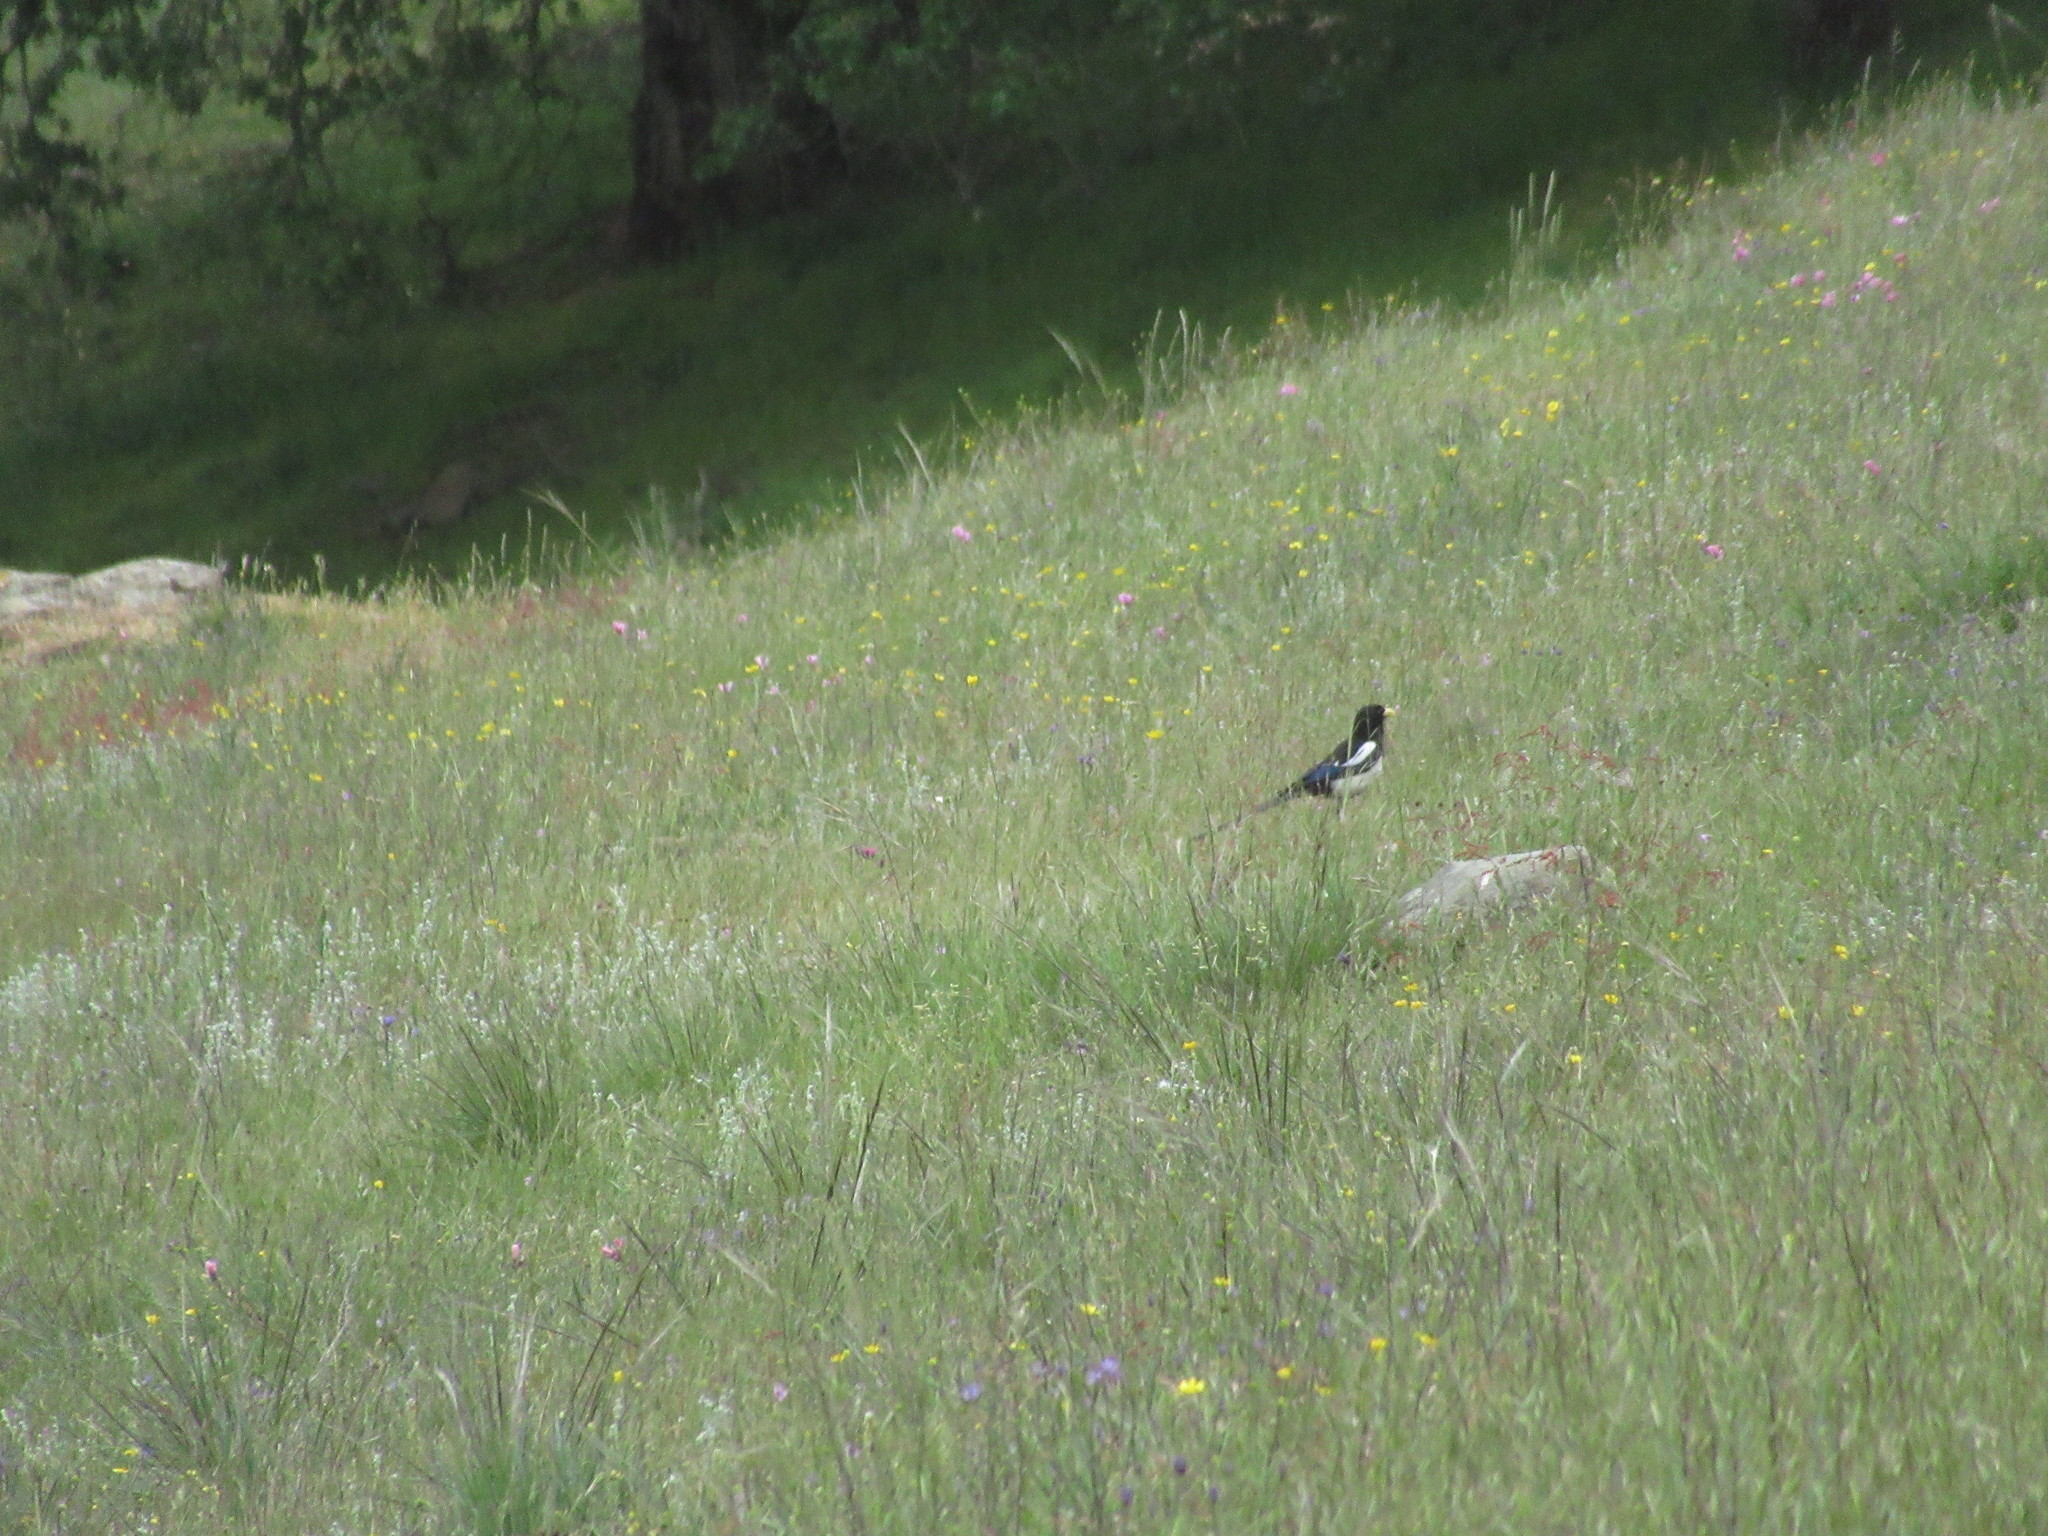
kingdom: Animalia
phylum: Chordata
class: Aves
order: Passeriformes
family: Corvidae
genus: Pica
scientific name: Pica nuttalli
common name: Yellow-billed magpie
